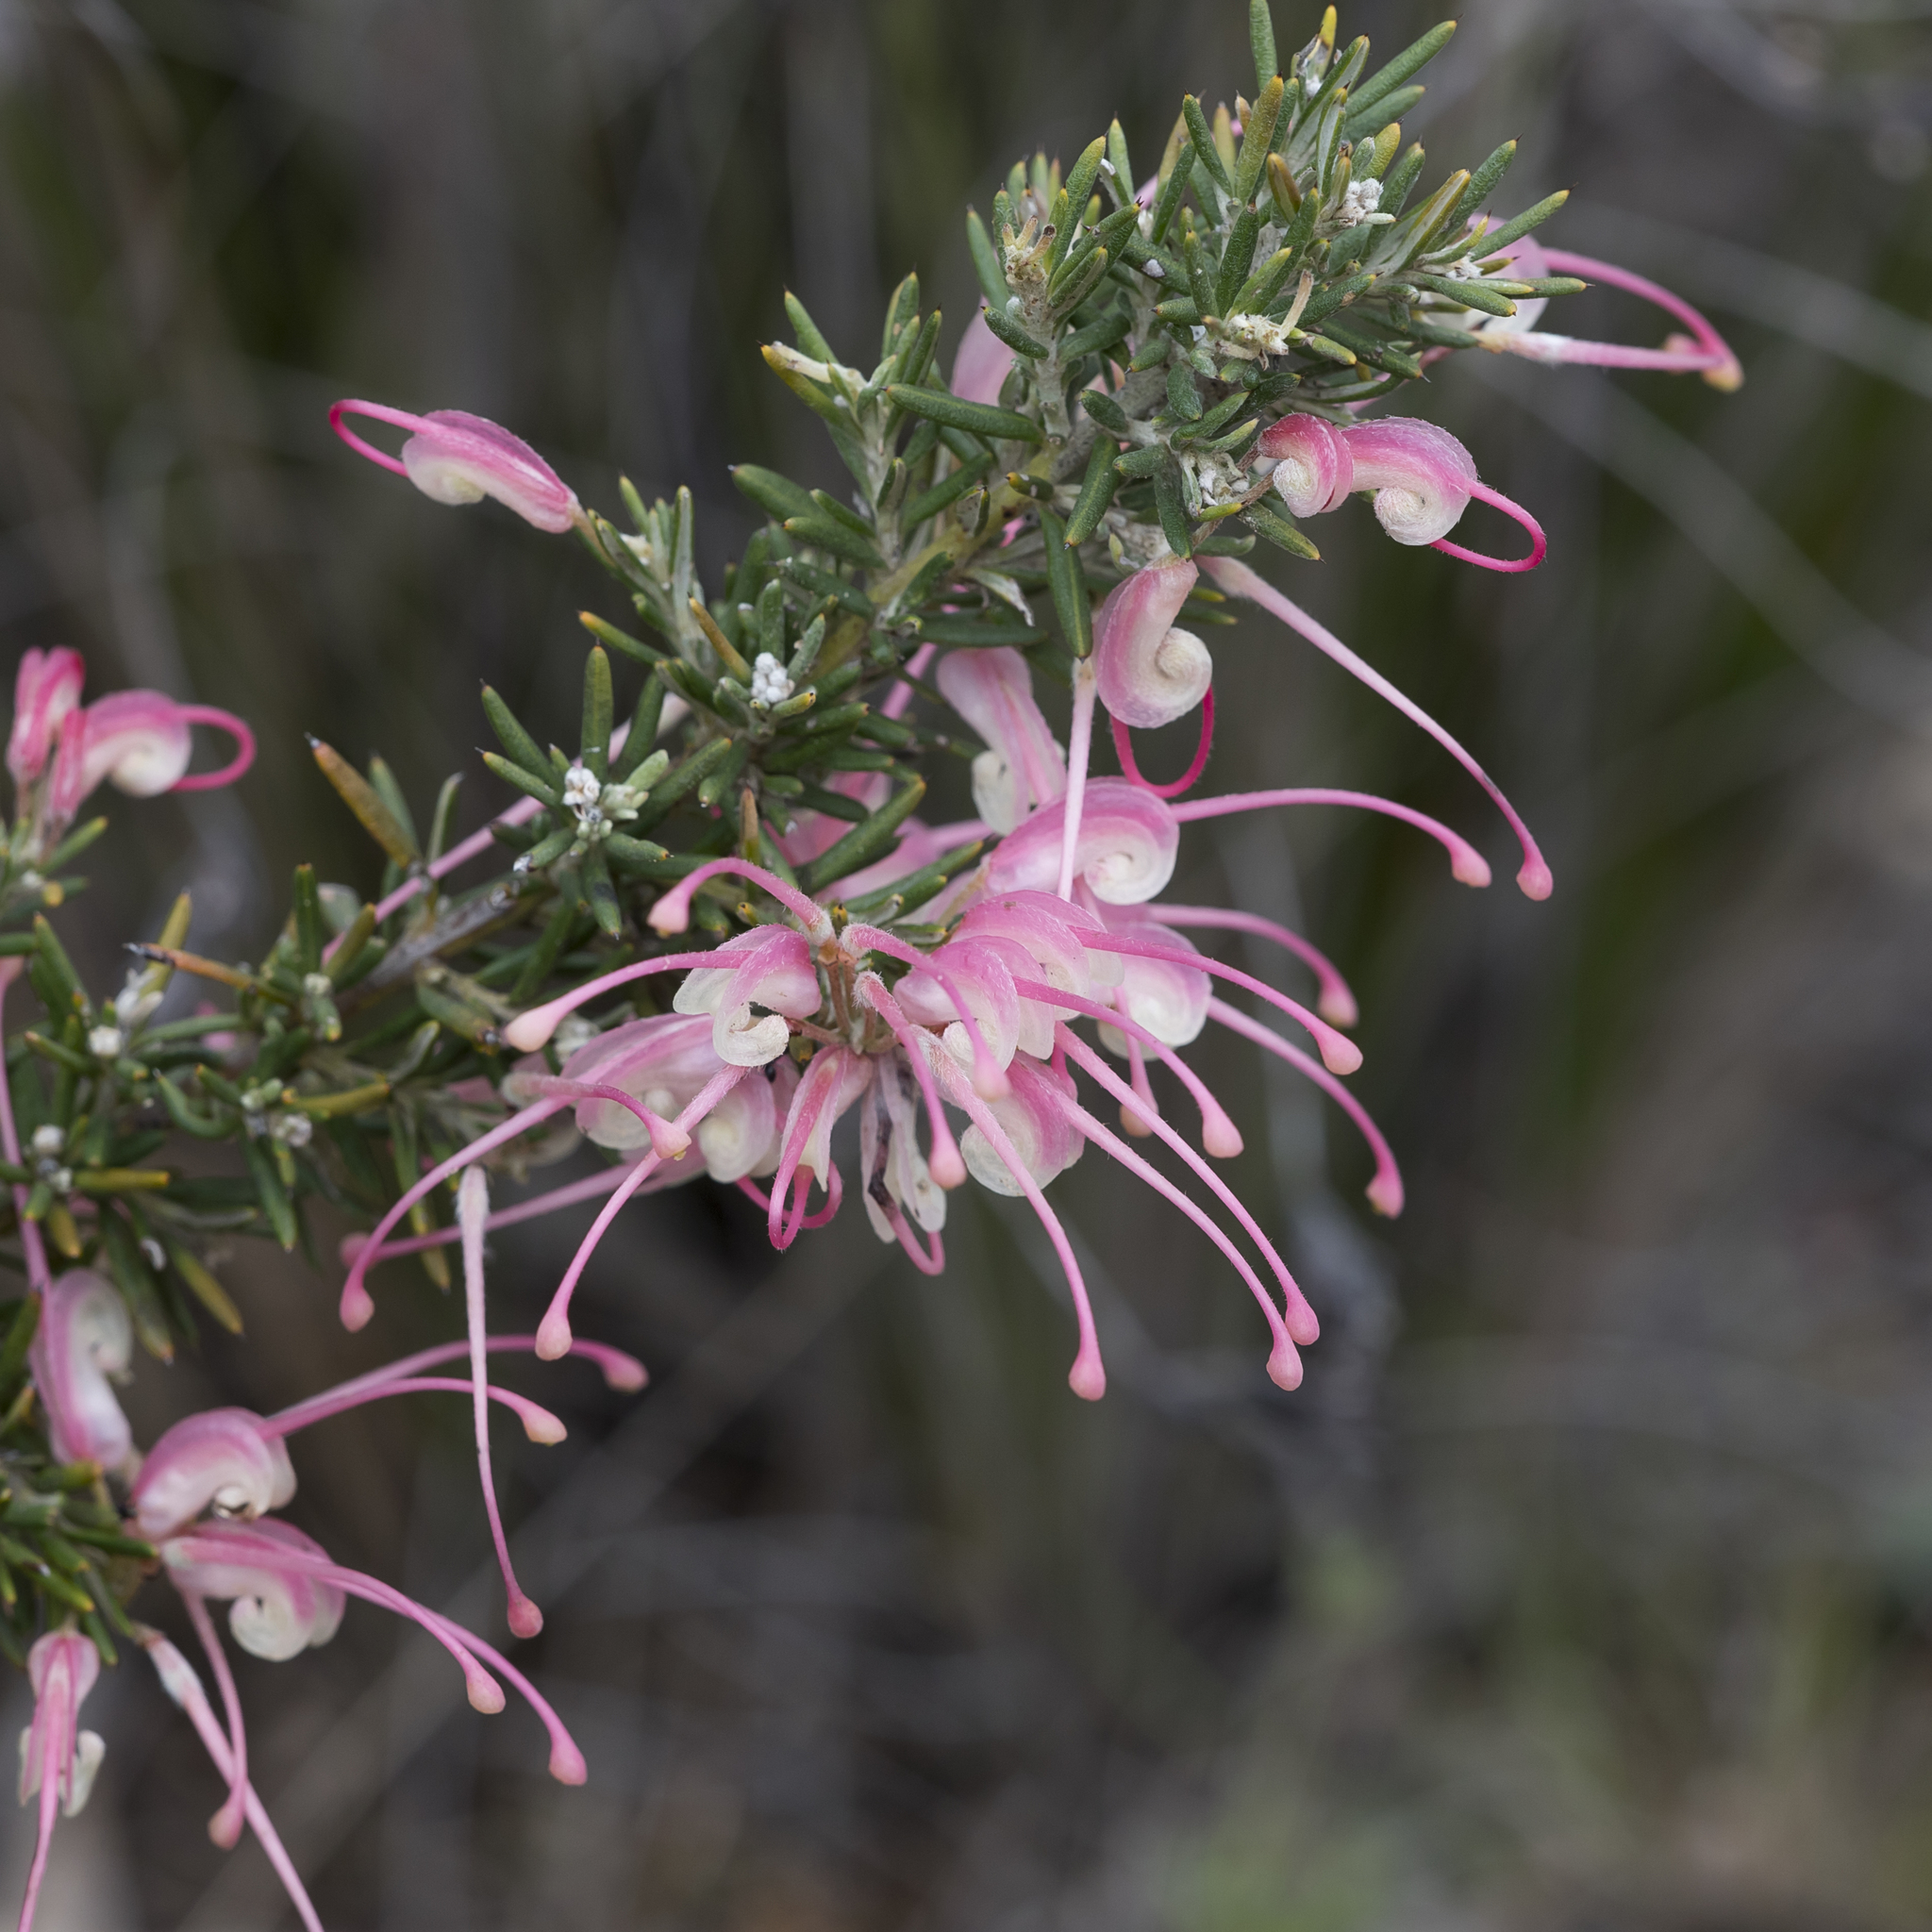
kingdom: Plantae
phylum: Tracheophyta
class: Magnoliopsida
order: Proteales
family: Proteaceae
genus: Grevillea
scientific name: Grevillea lavandulacea
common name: Lavender grevillea
